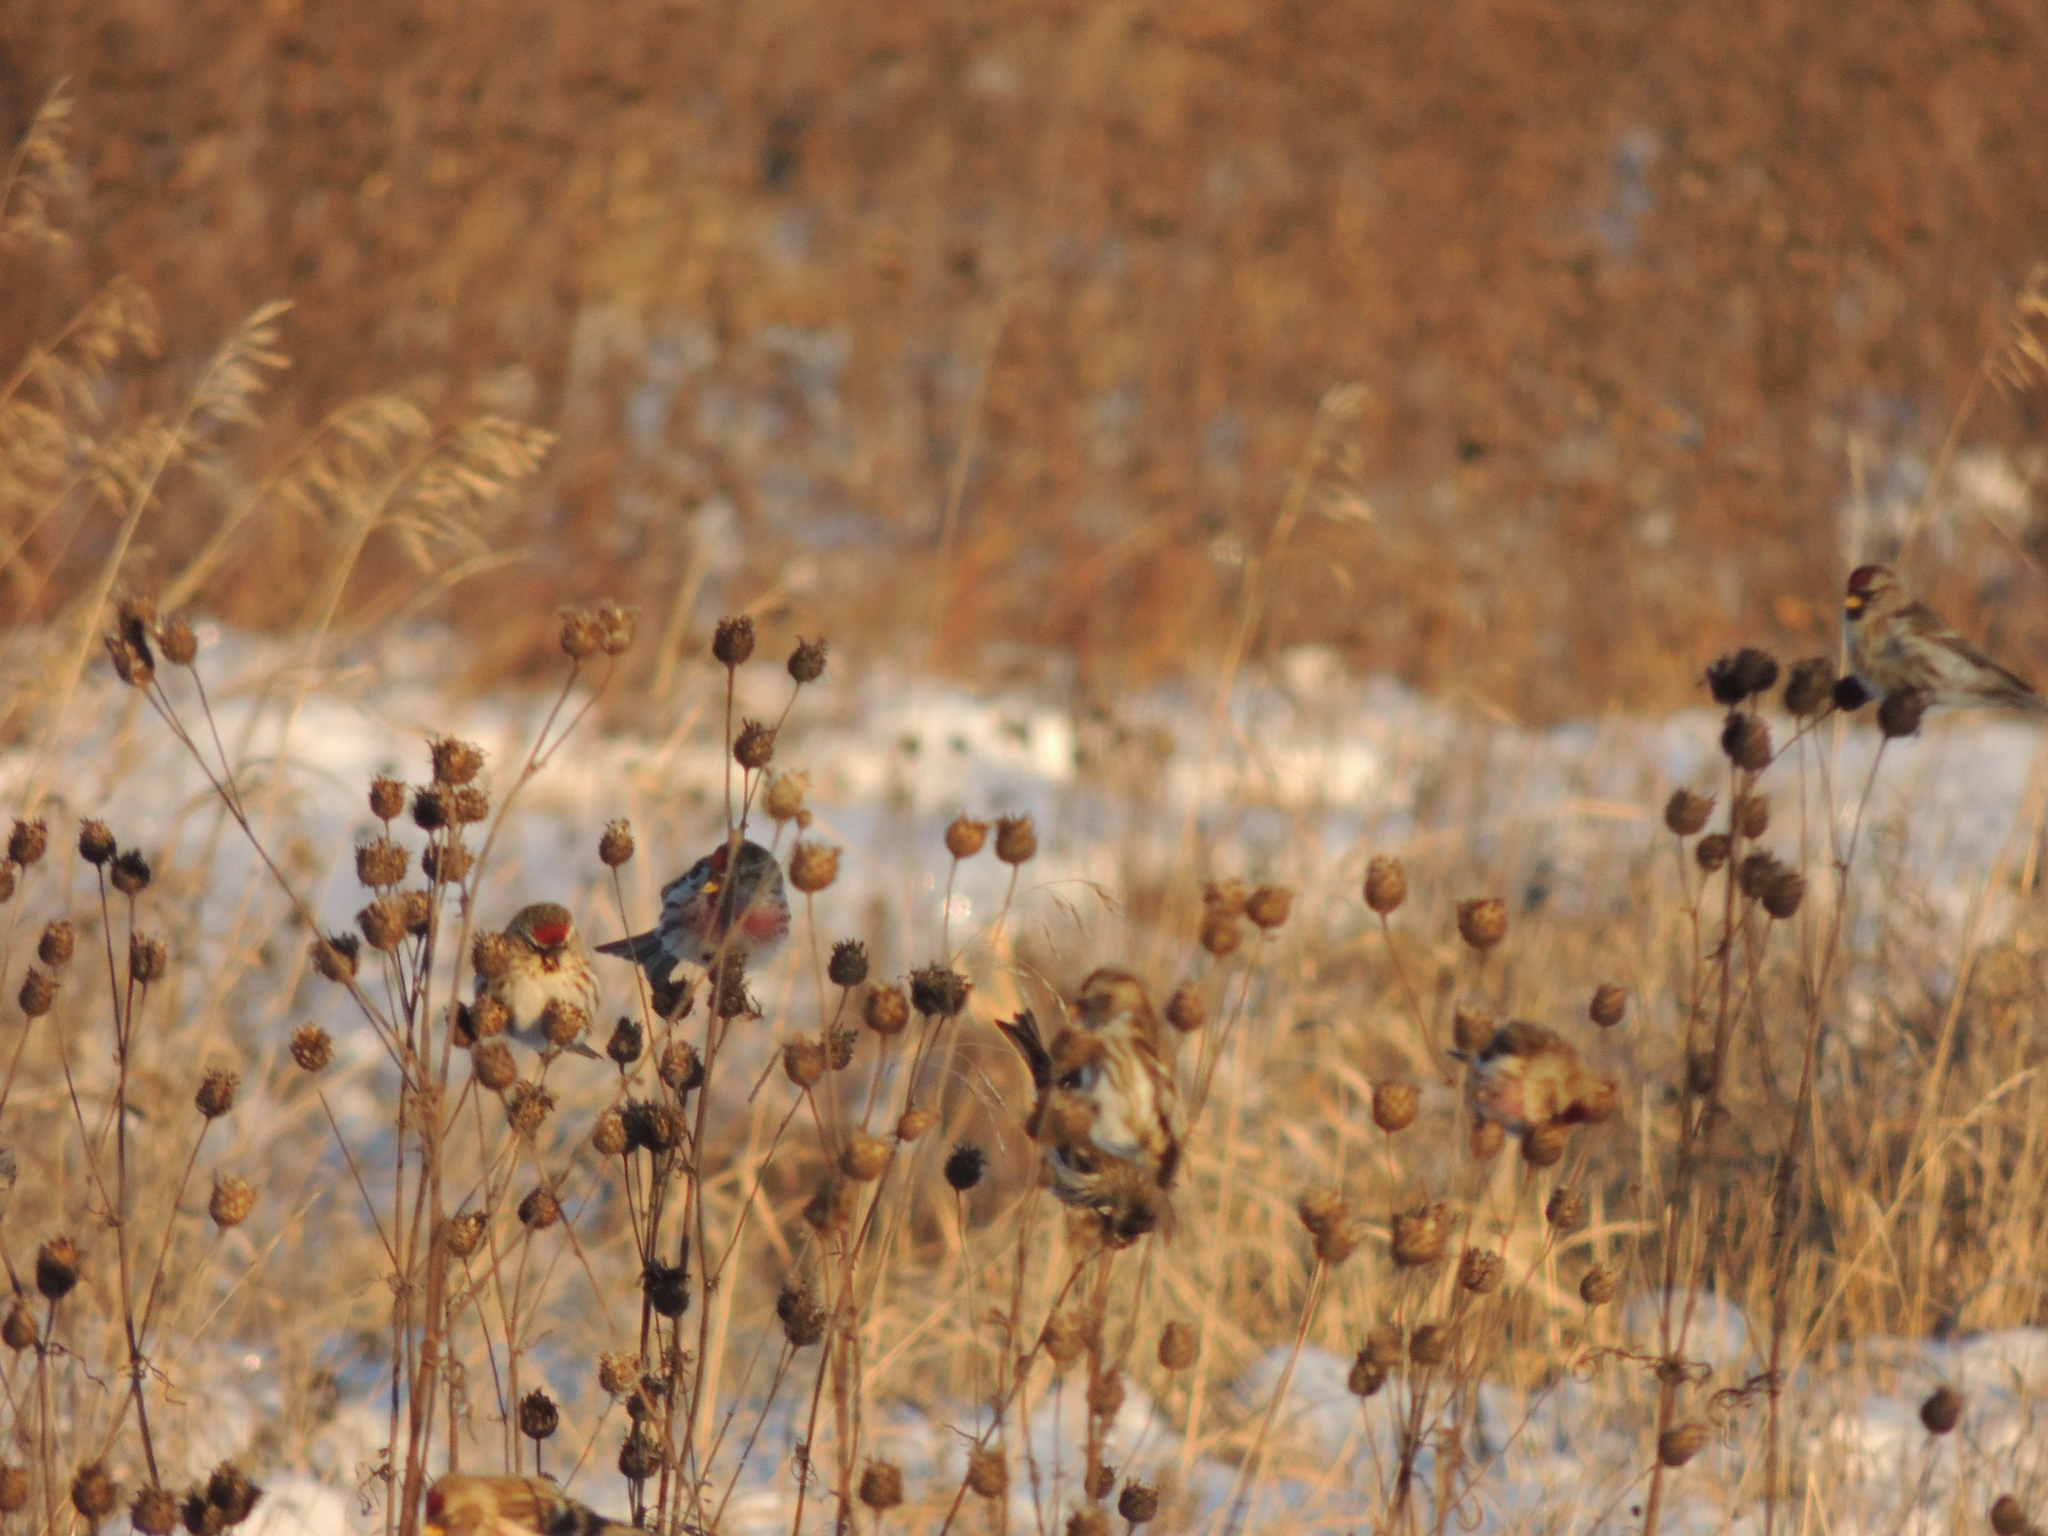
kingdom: Animalia
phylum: Chordata
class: Aves
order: Passeriformes
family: Fringillidae
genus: Acanthis
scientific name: Acanthis flammea
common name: Common redpoll
